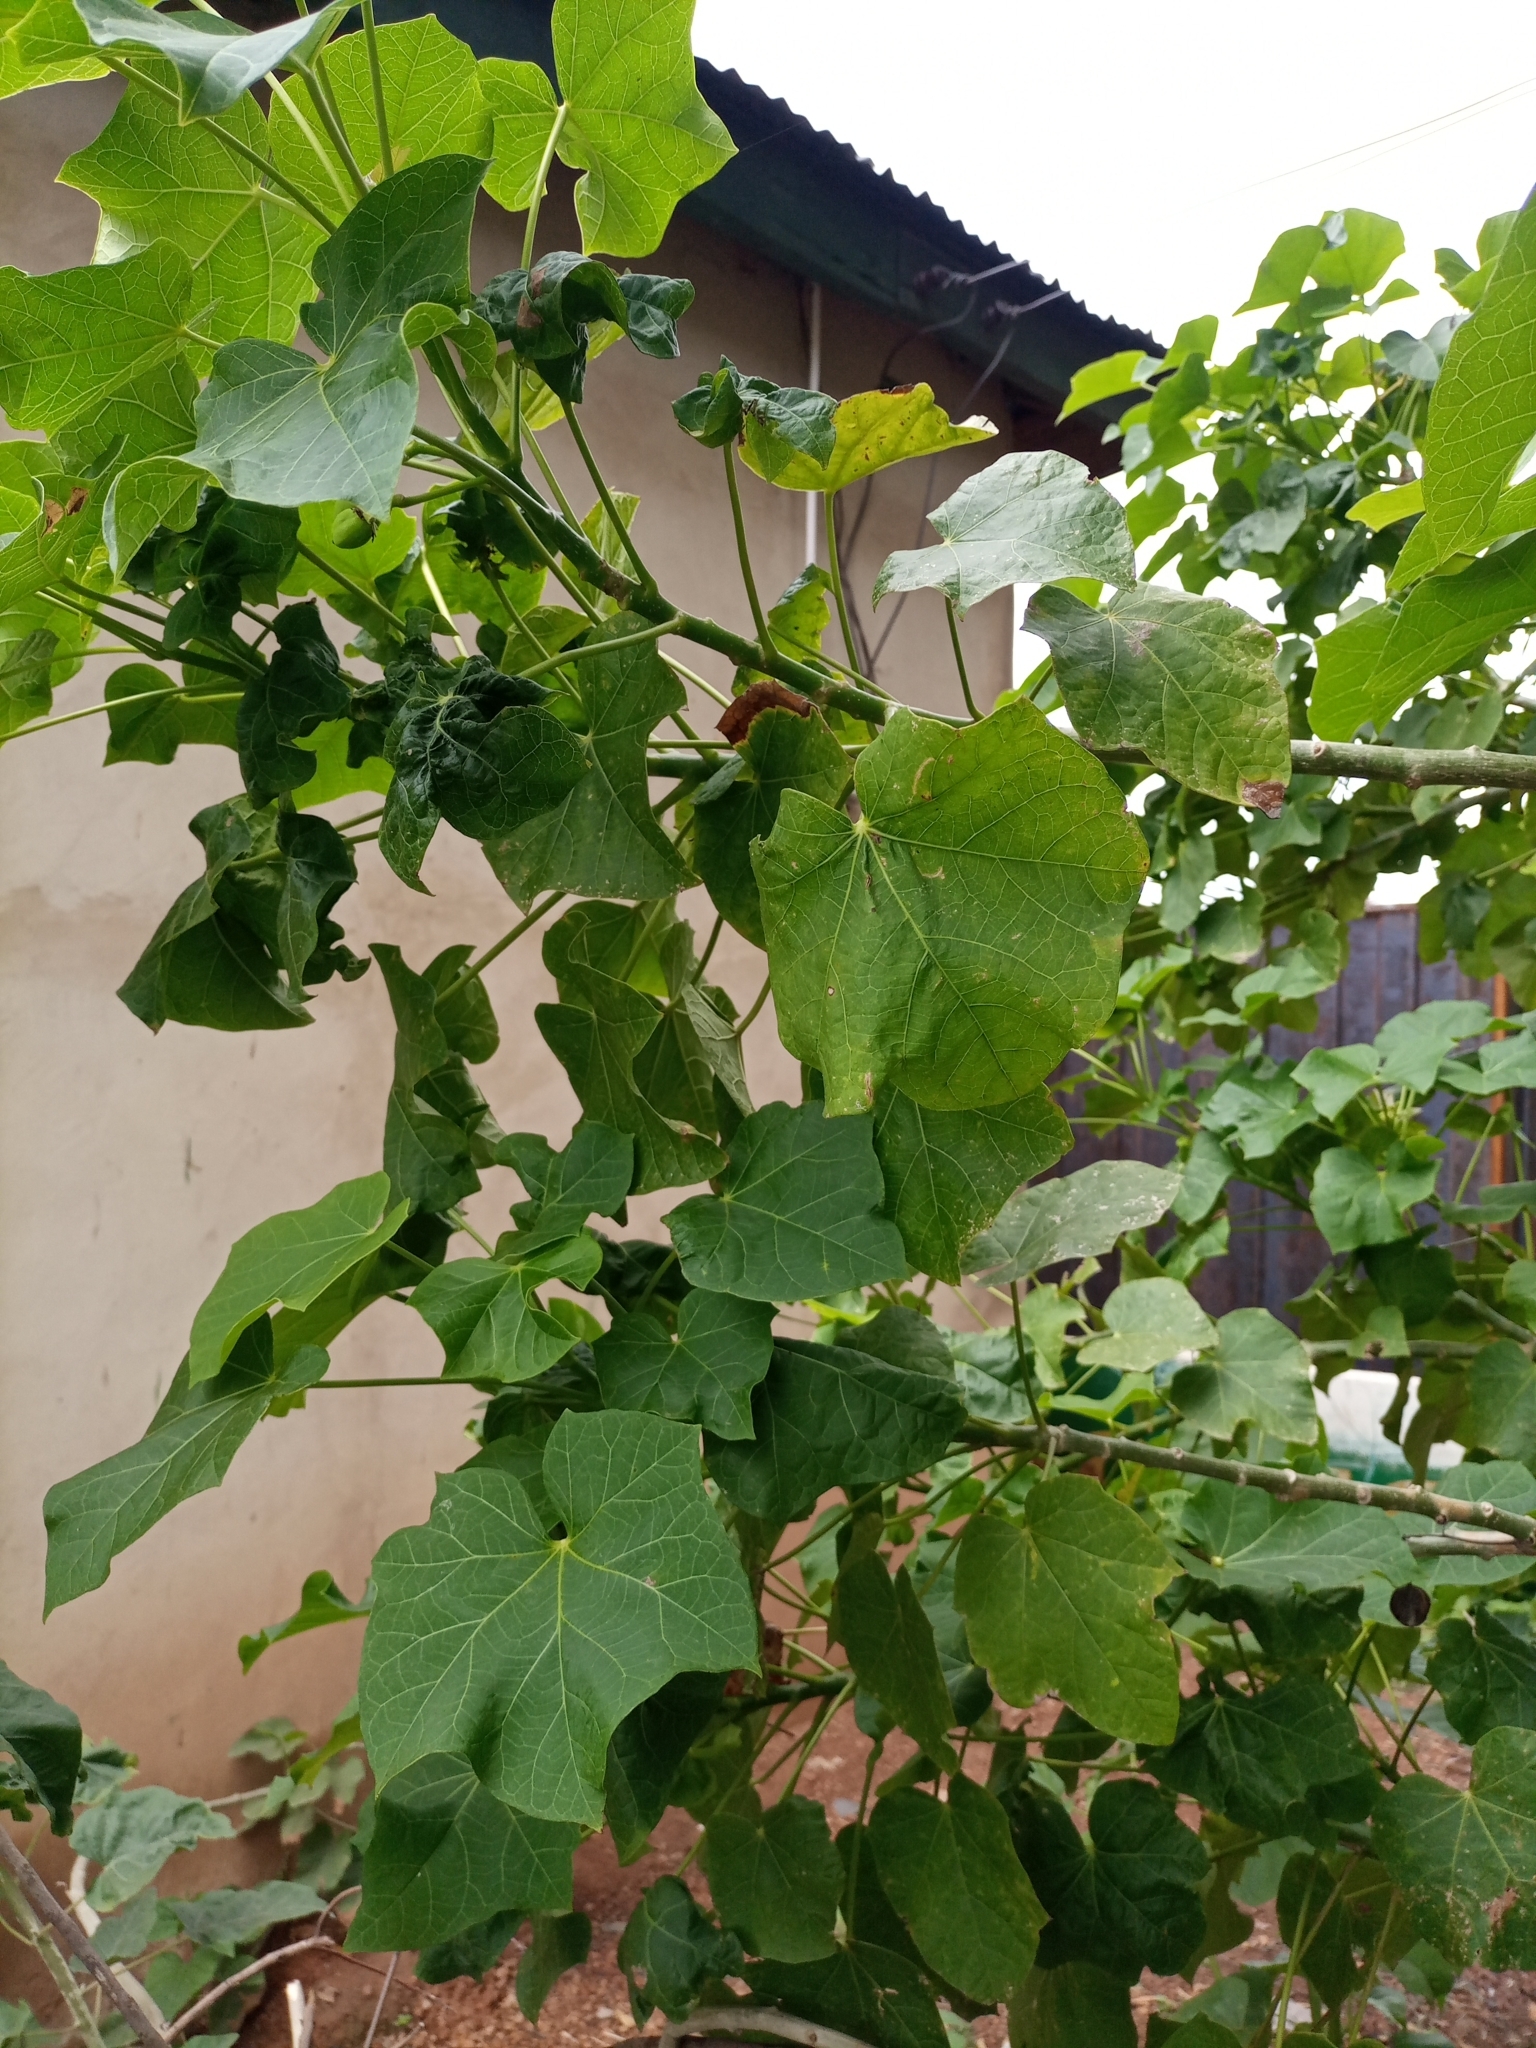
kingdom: Plantae
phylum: Tracheophyta
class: Magnoliopsida
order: Malpighiales
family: Euphorbiaceae
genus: Jatropha
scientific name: Jatropha curcas
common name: Barbados nut
